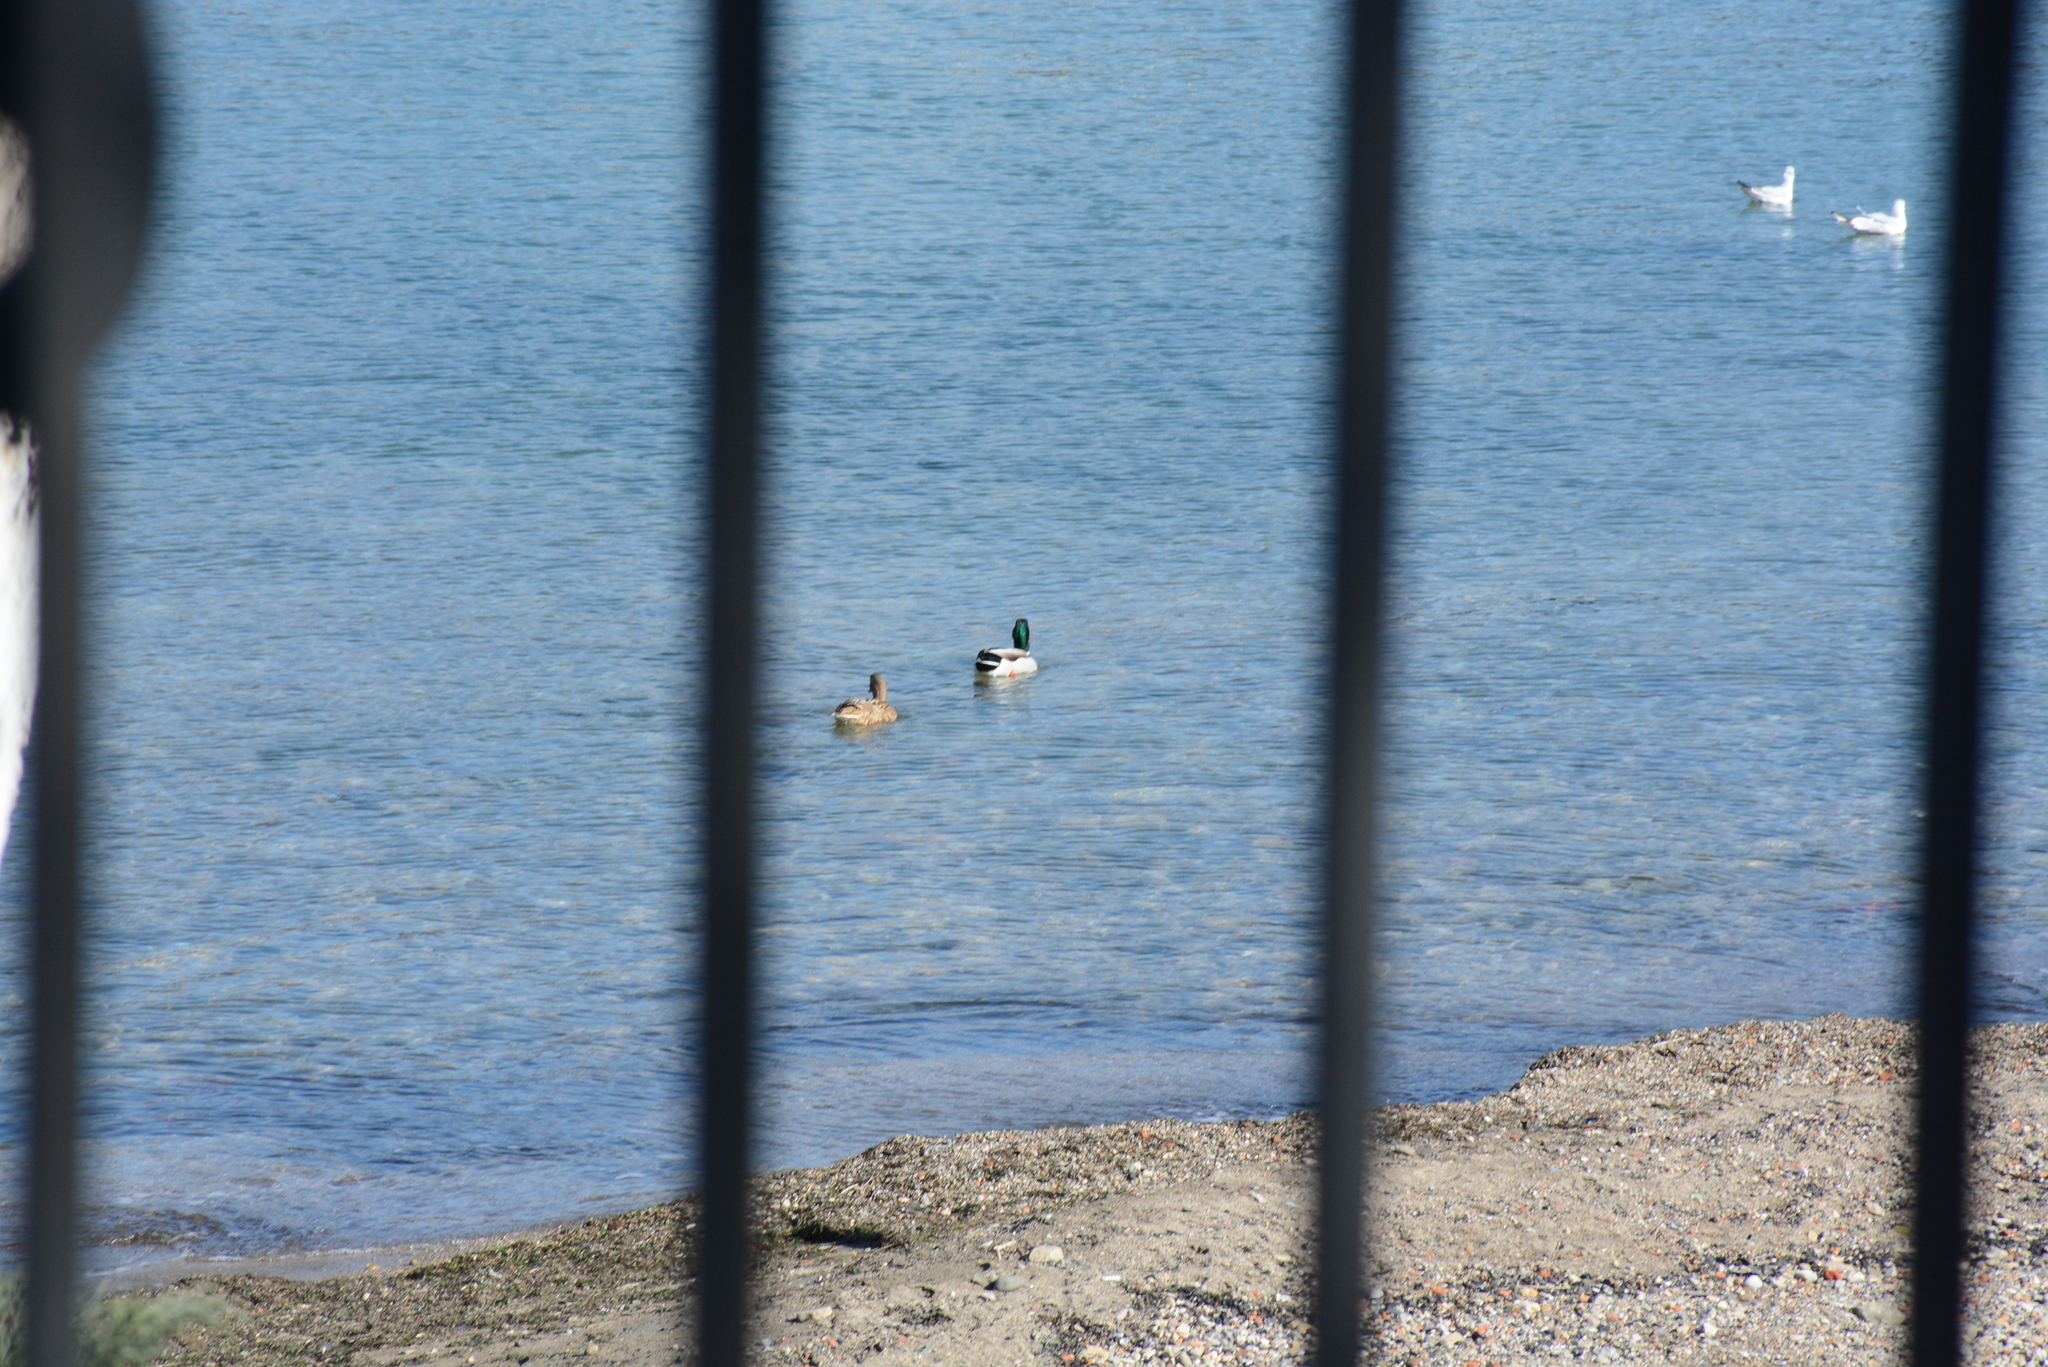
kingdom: Animalia
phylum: Chordata
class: Aves
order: Anseriformes
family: Anatidae
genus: Anas
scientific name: Anas platyrhynchos
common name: Mallard
